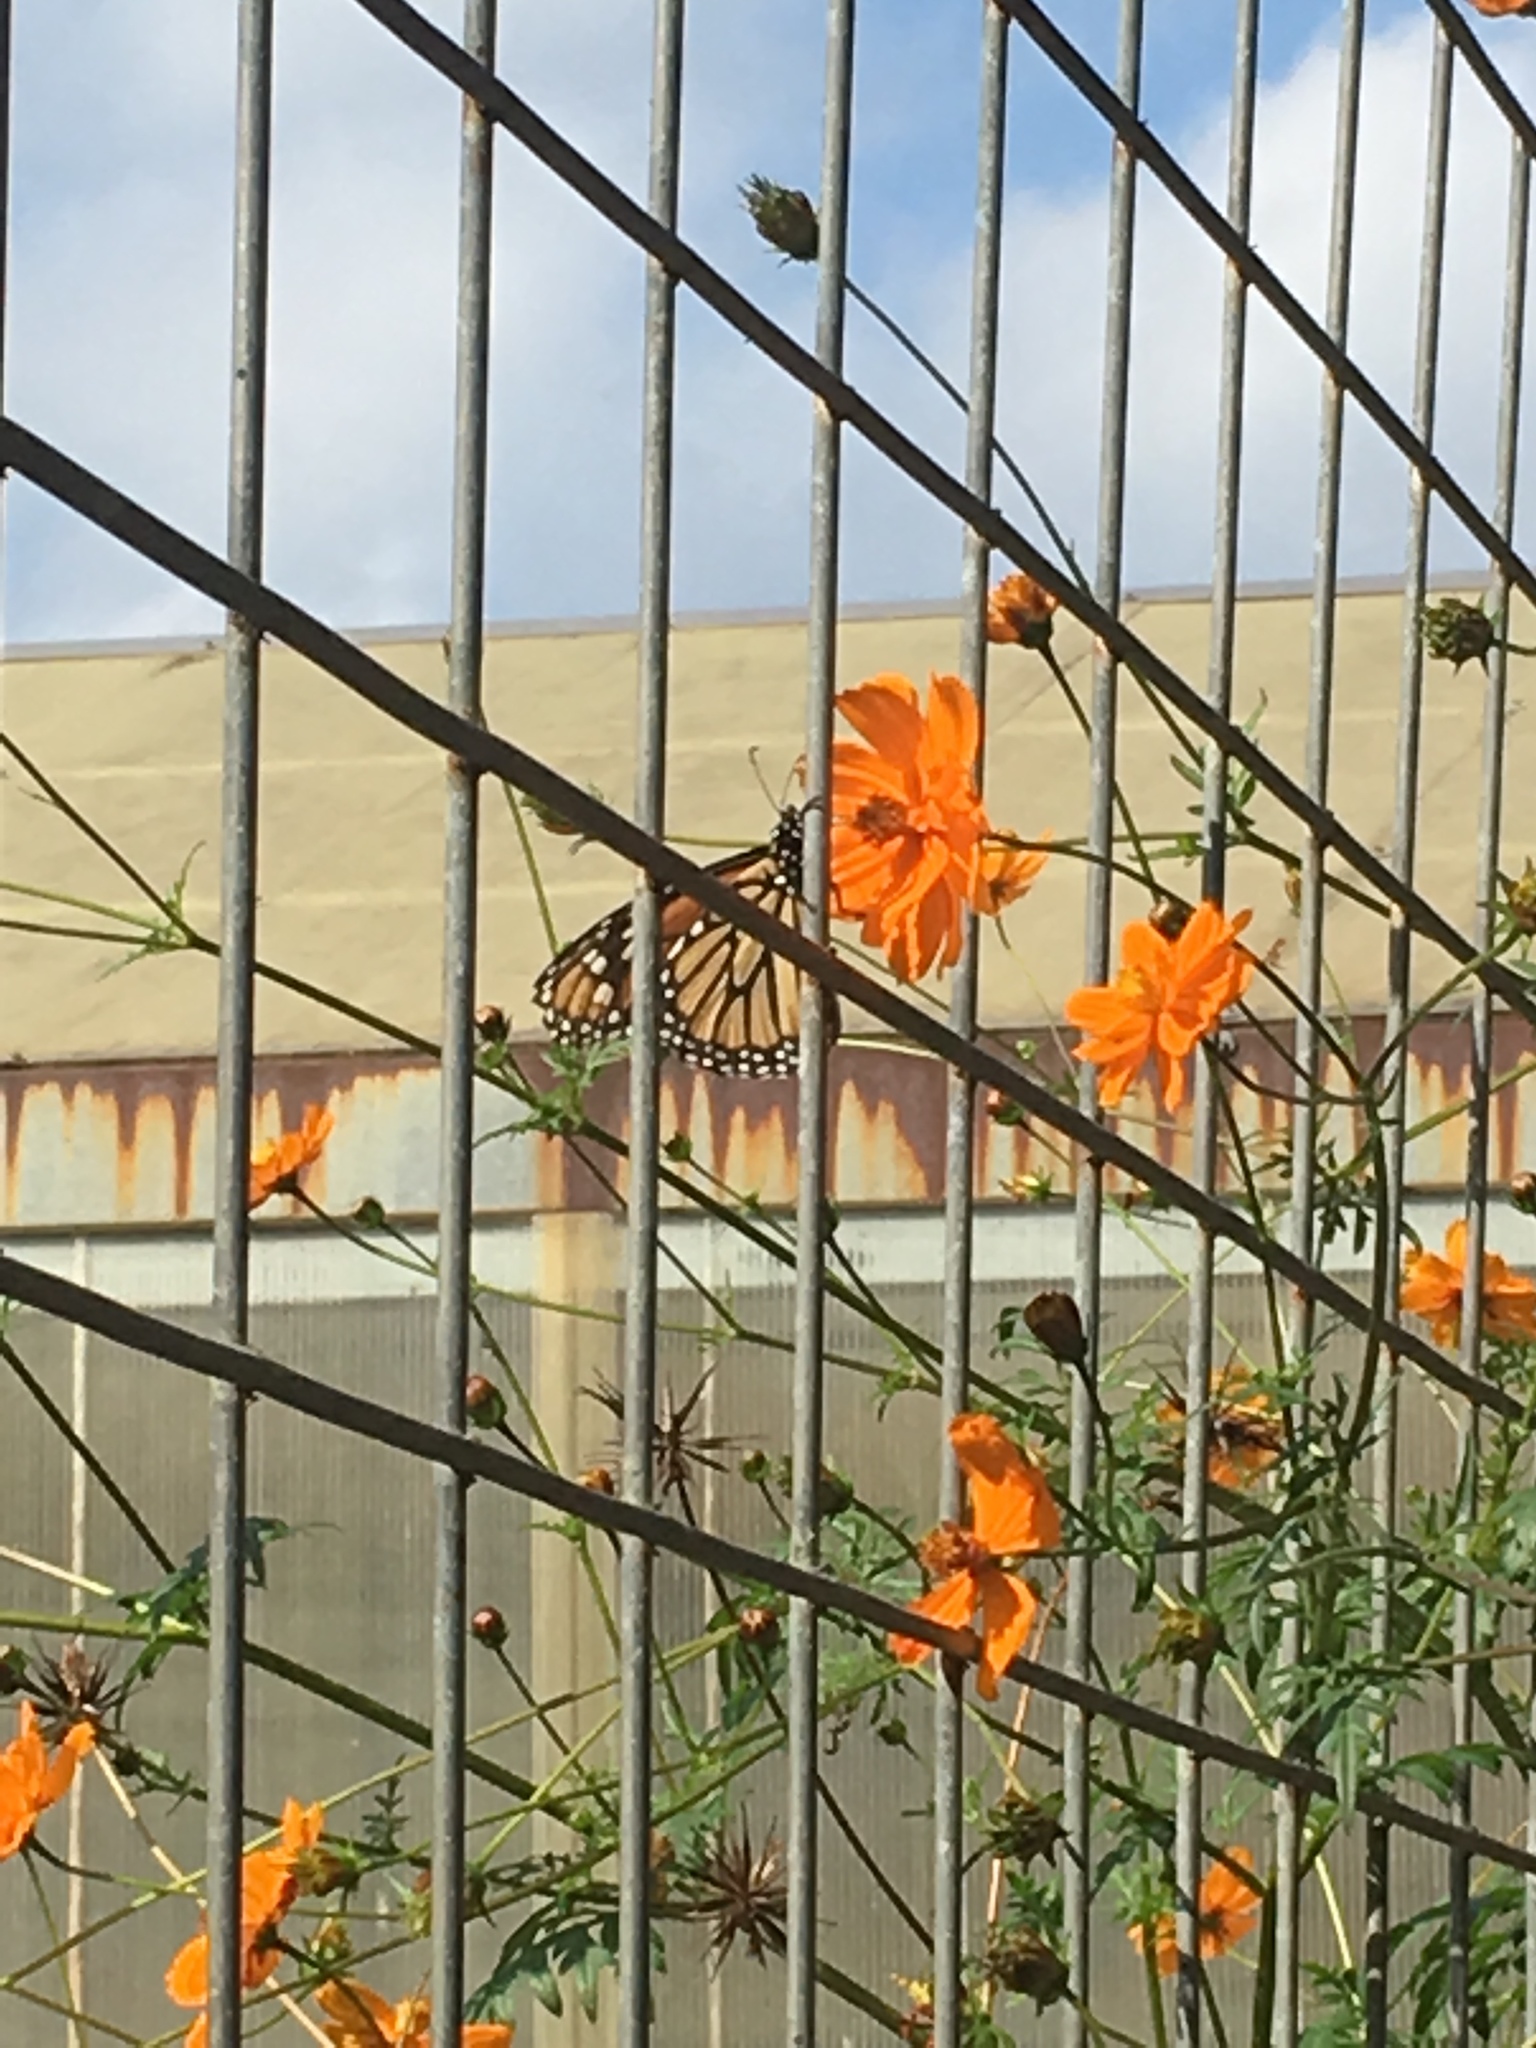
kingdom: Animalia
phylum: Arthropoda
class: Insecta
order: Lepidoptera
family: Nymphalidae
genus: Danaus
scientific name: Danaus plexippus
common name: Monarch
